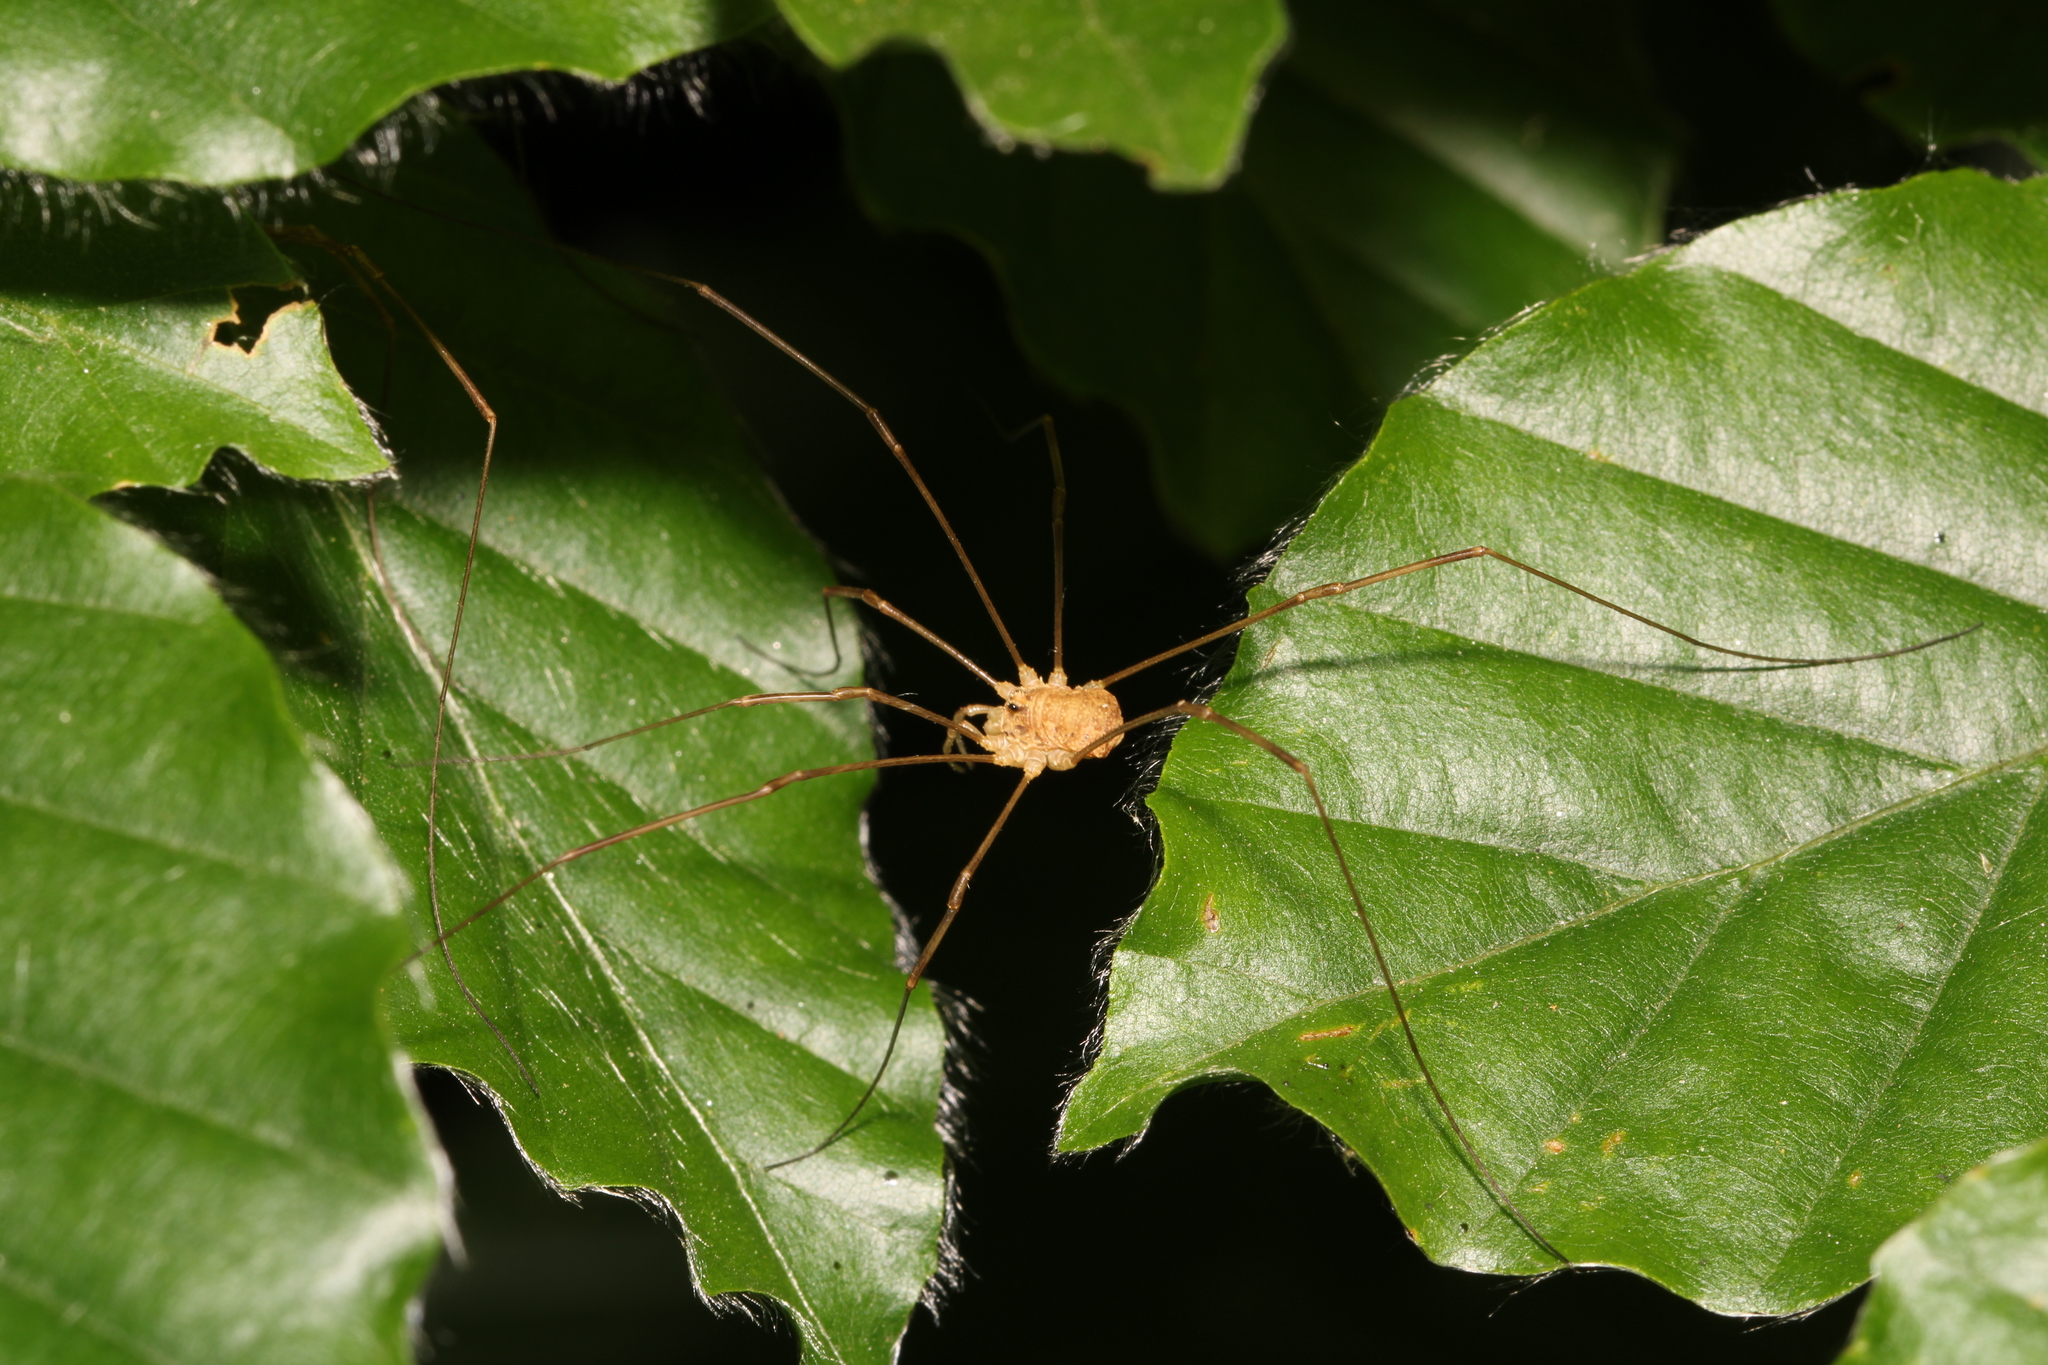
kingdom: Animalia
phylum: Arthropoda
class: Arachnida
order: Opiliones
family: Phalangiidae
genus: Rilaena
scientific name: Rilaena triangularis
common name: Spring harvestman
